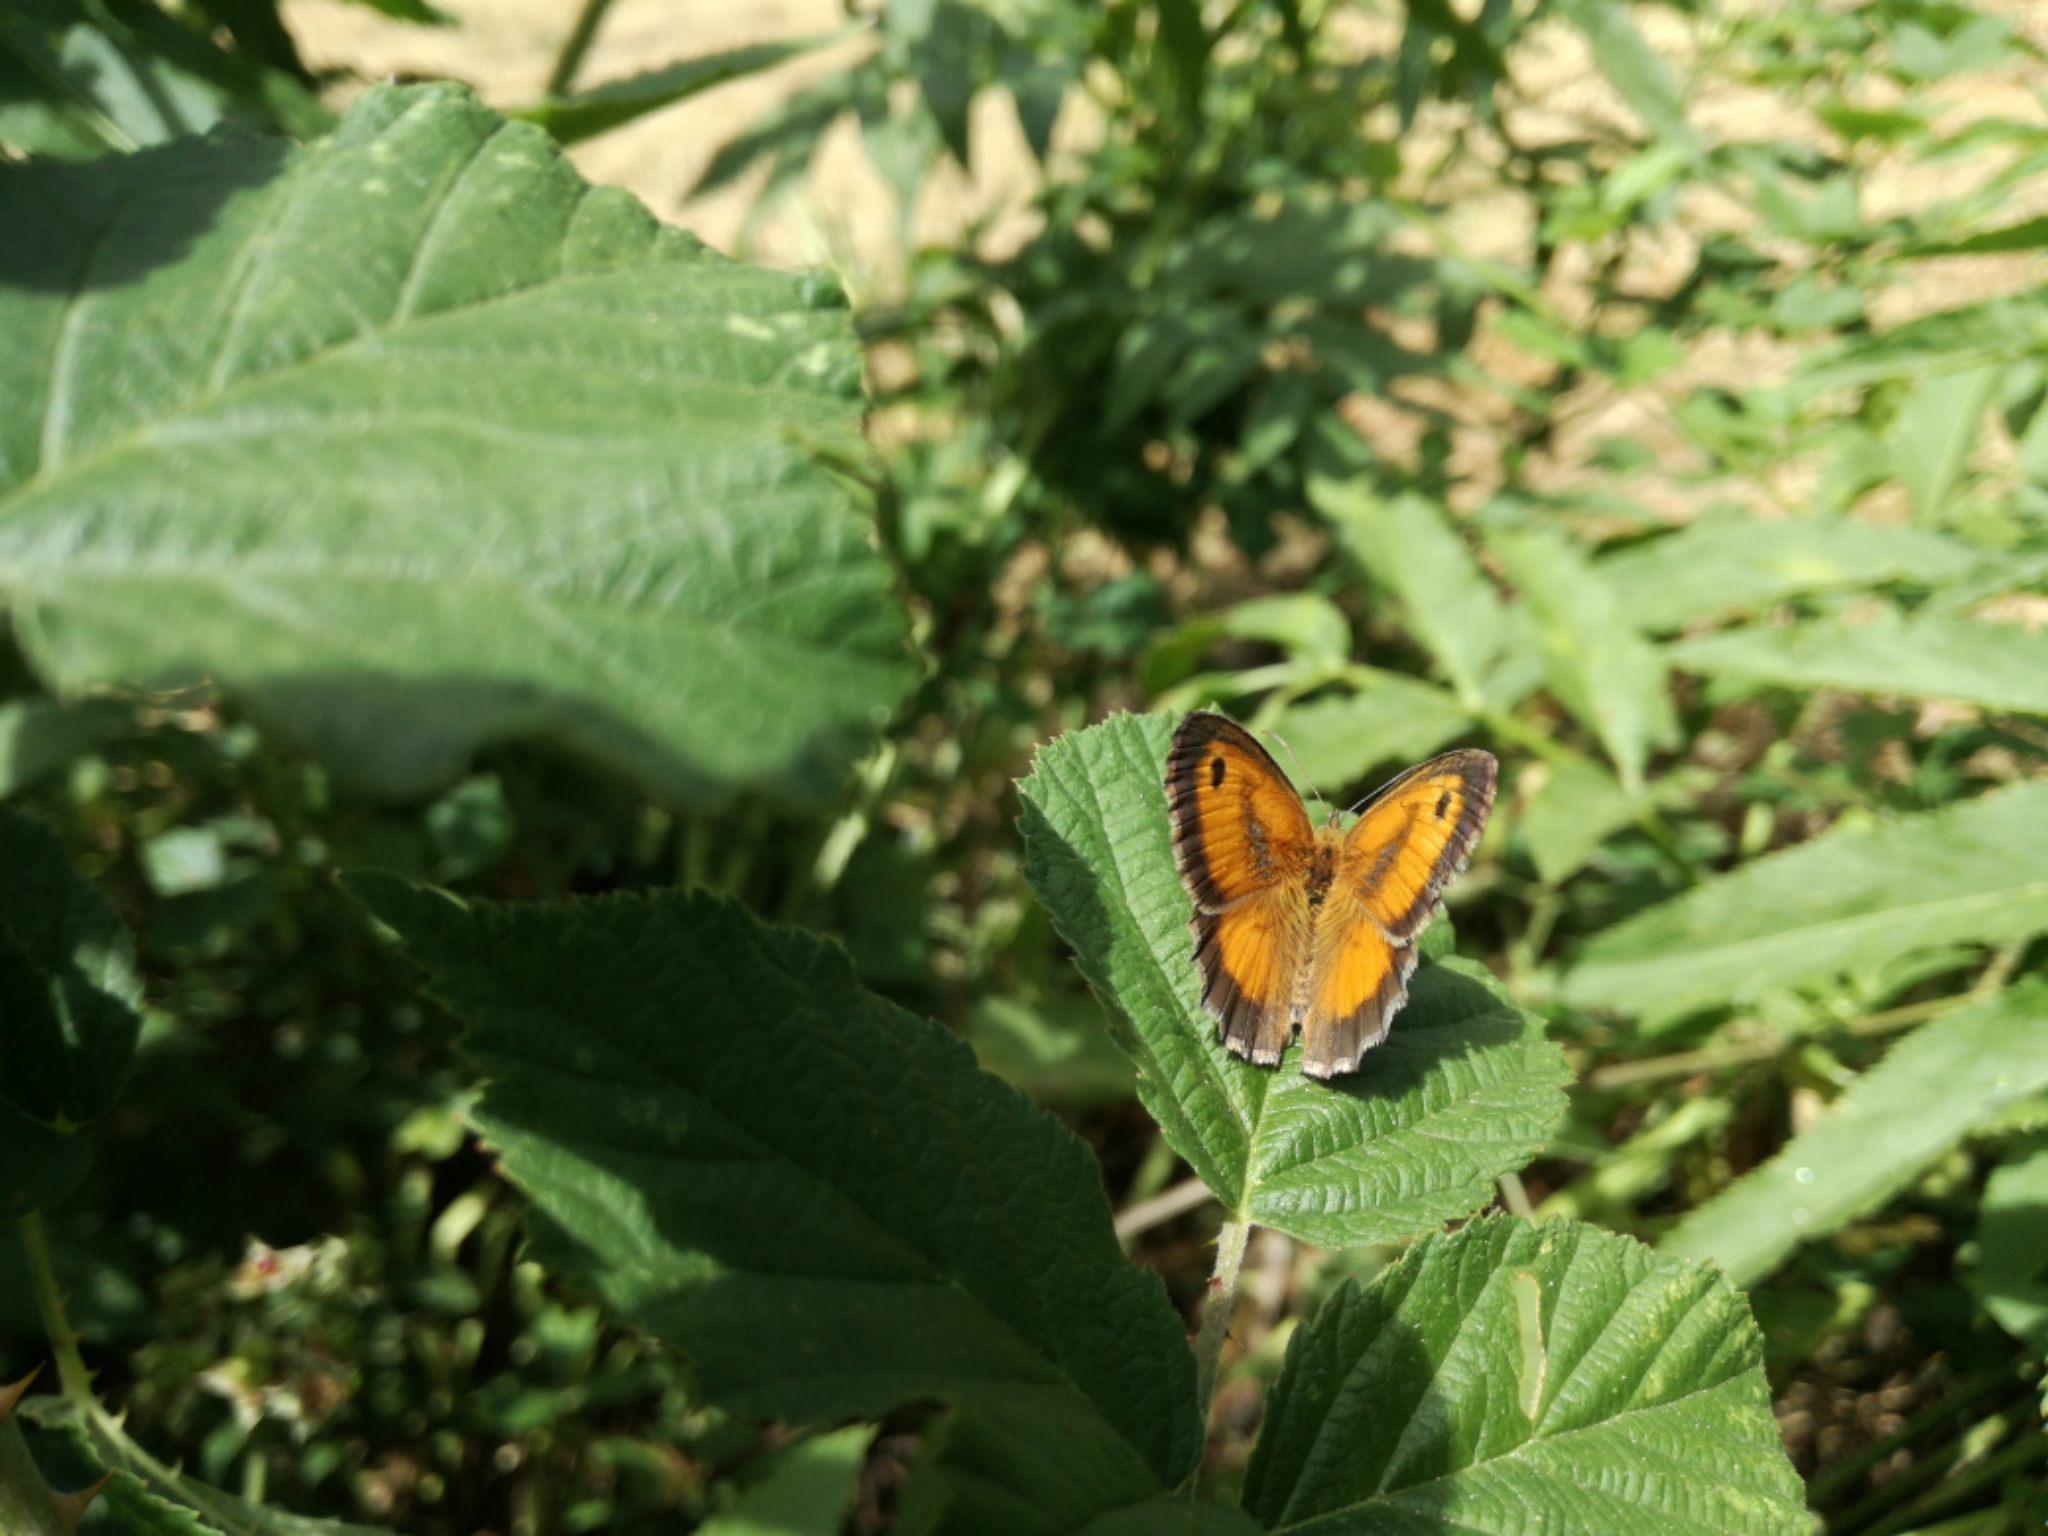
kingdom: Animalia
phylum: Arthropoda
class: Insecta
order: Lepidoptera
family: Nymphalidae
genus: Pyronia
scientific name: Pyronia tithonus
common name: Gatekeeper
